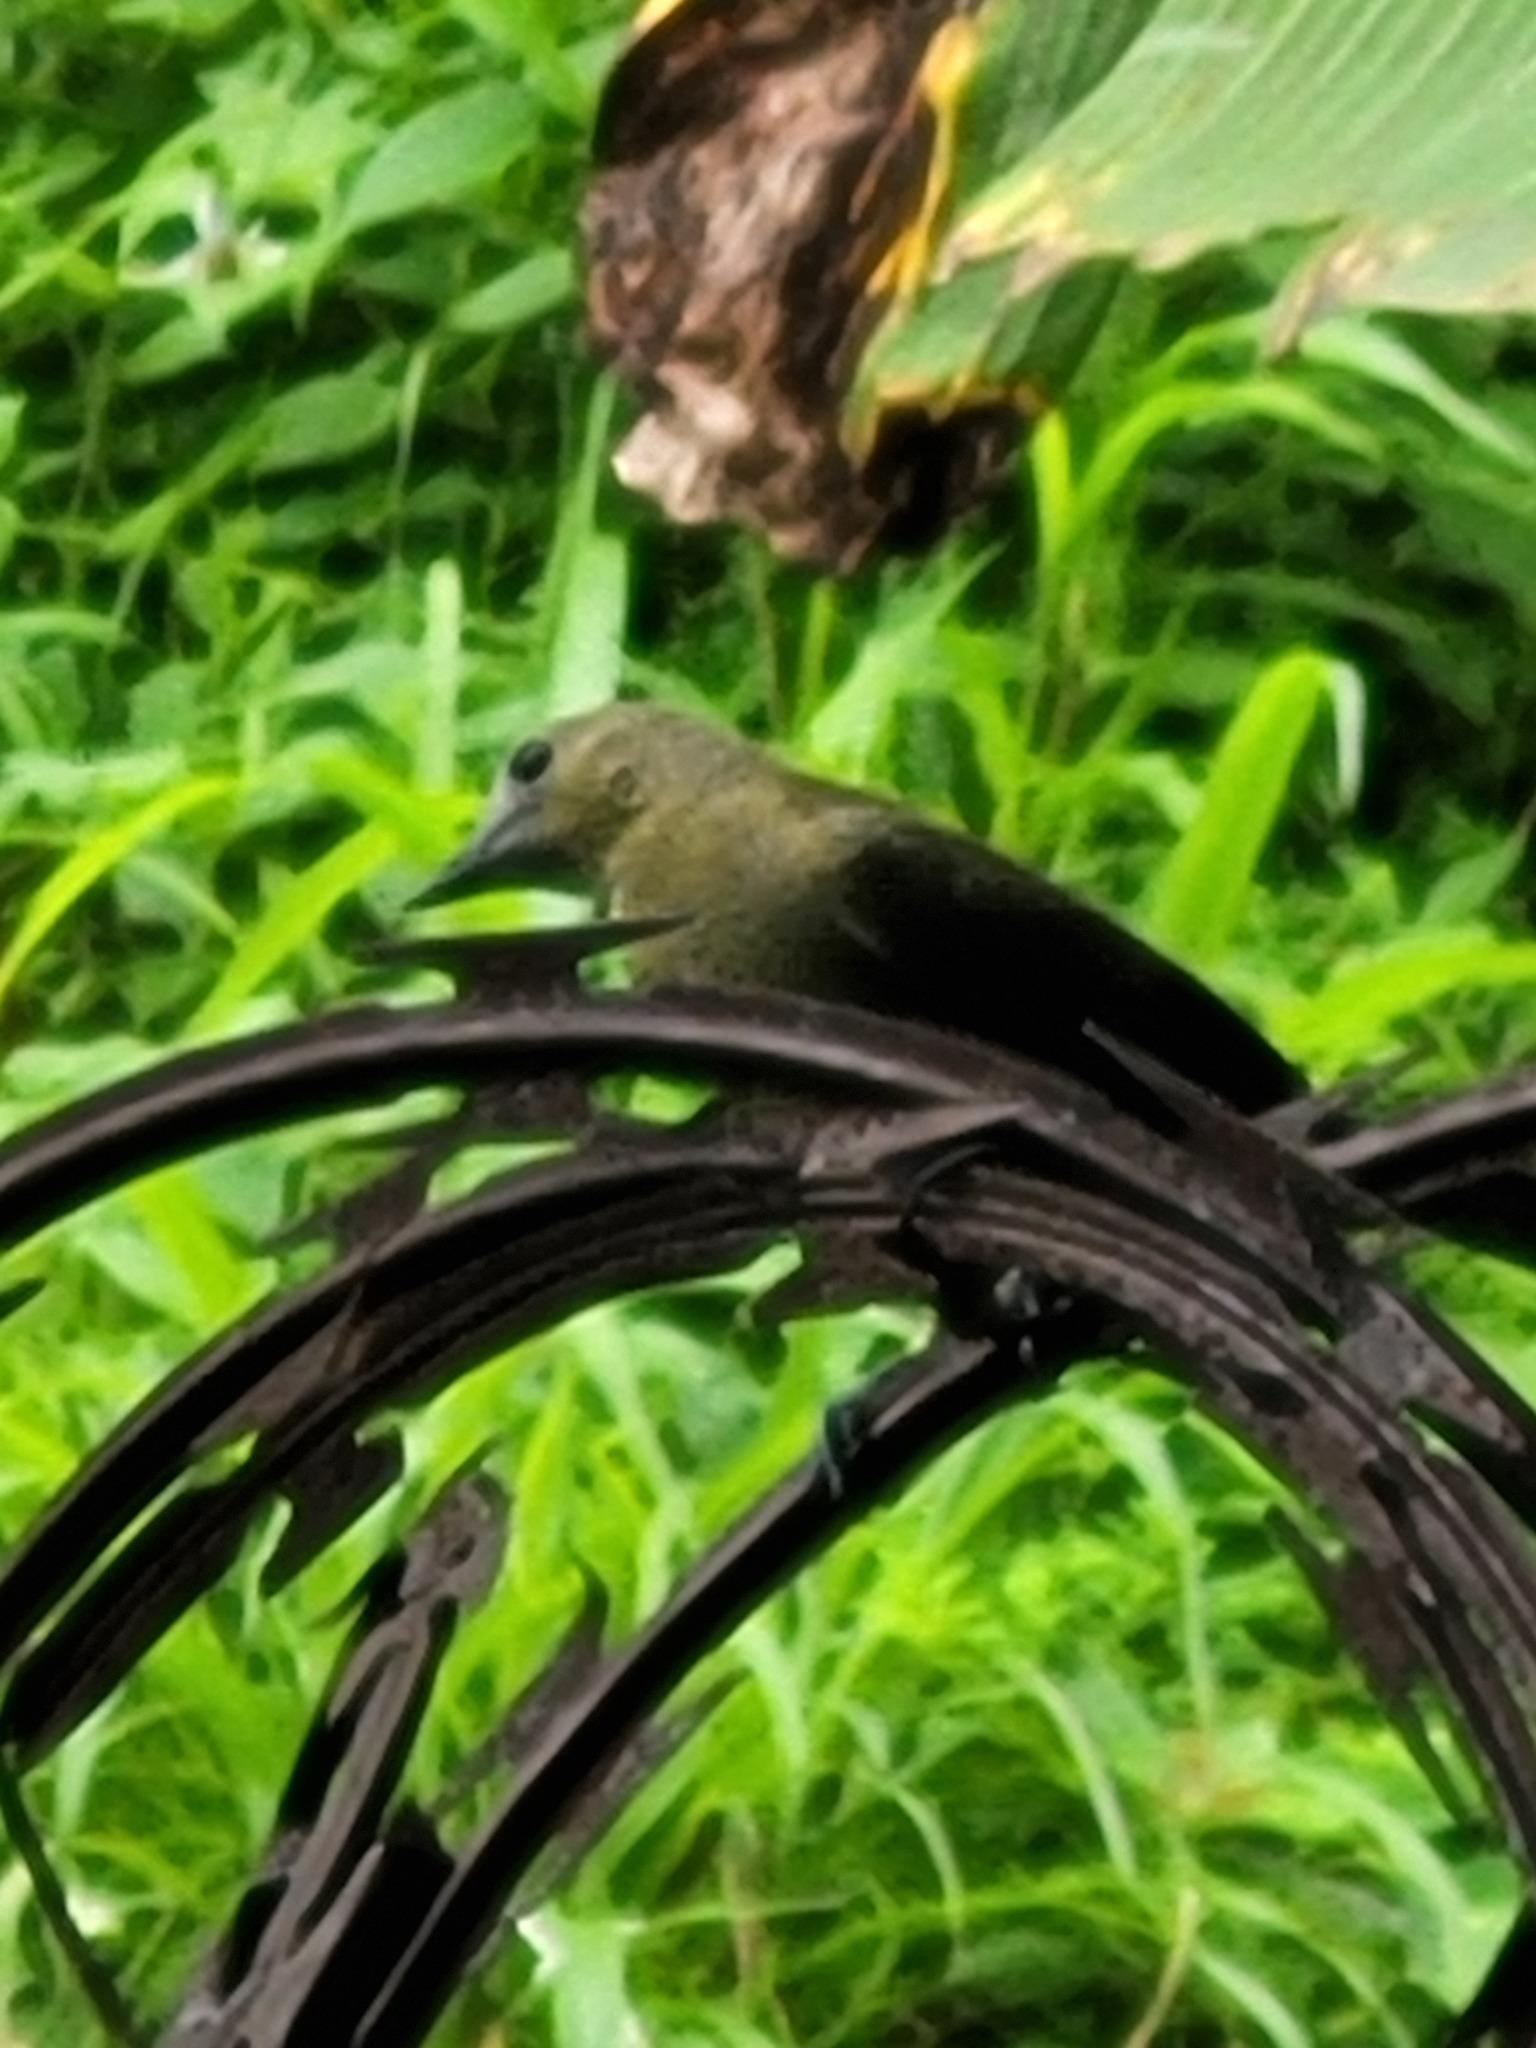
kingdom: Animalia
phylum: Chordata
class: Aves
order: Passeriformes
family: Thraupidae
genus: Thraupis
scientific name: Thraupis palmarum
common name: Palm tanager
